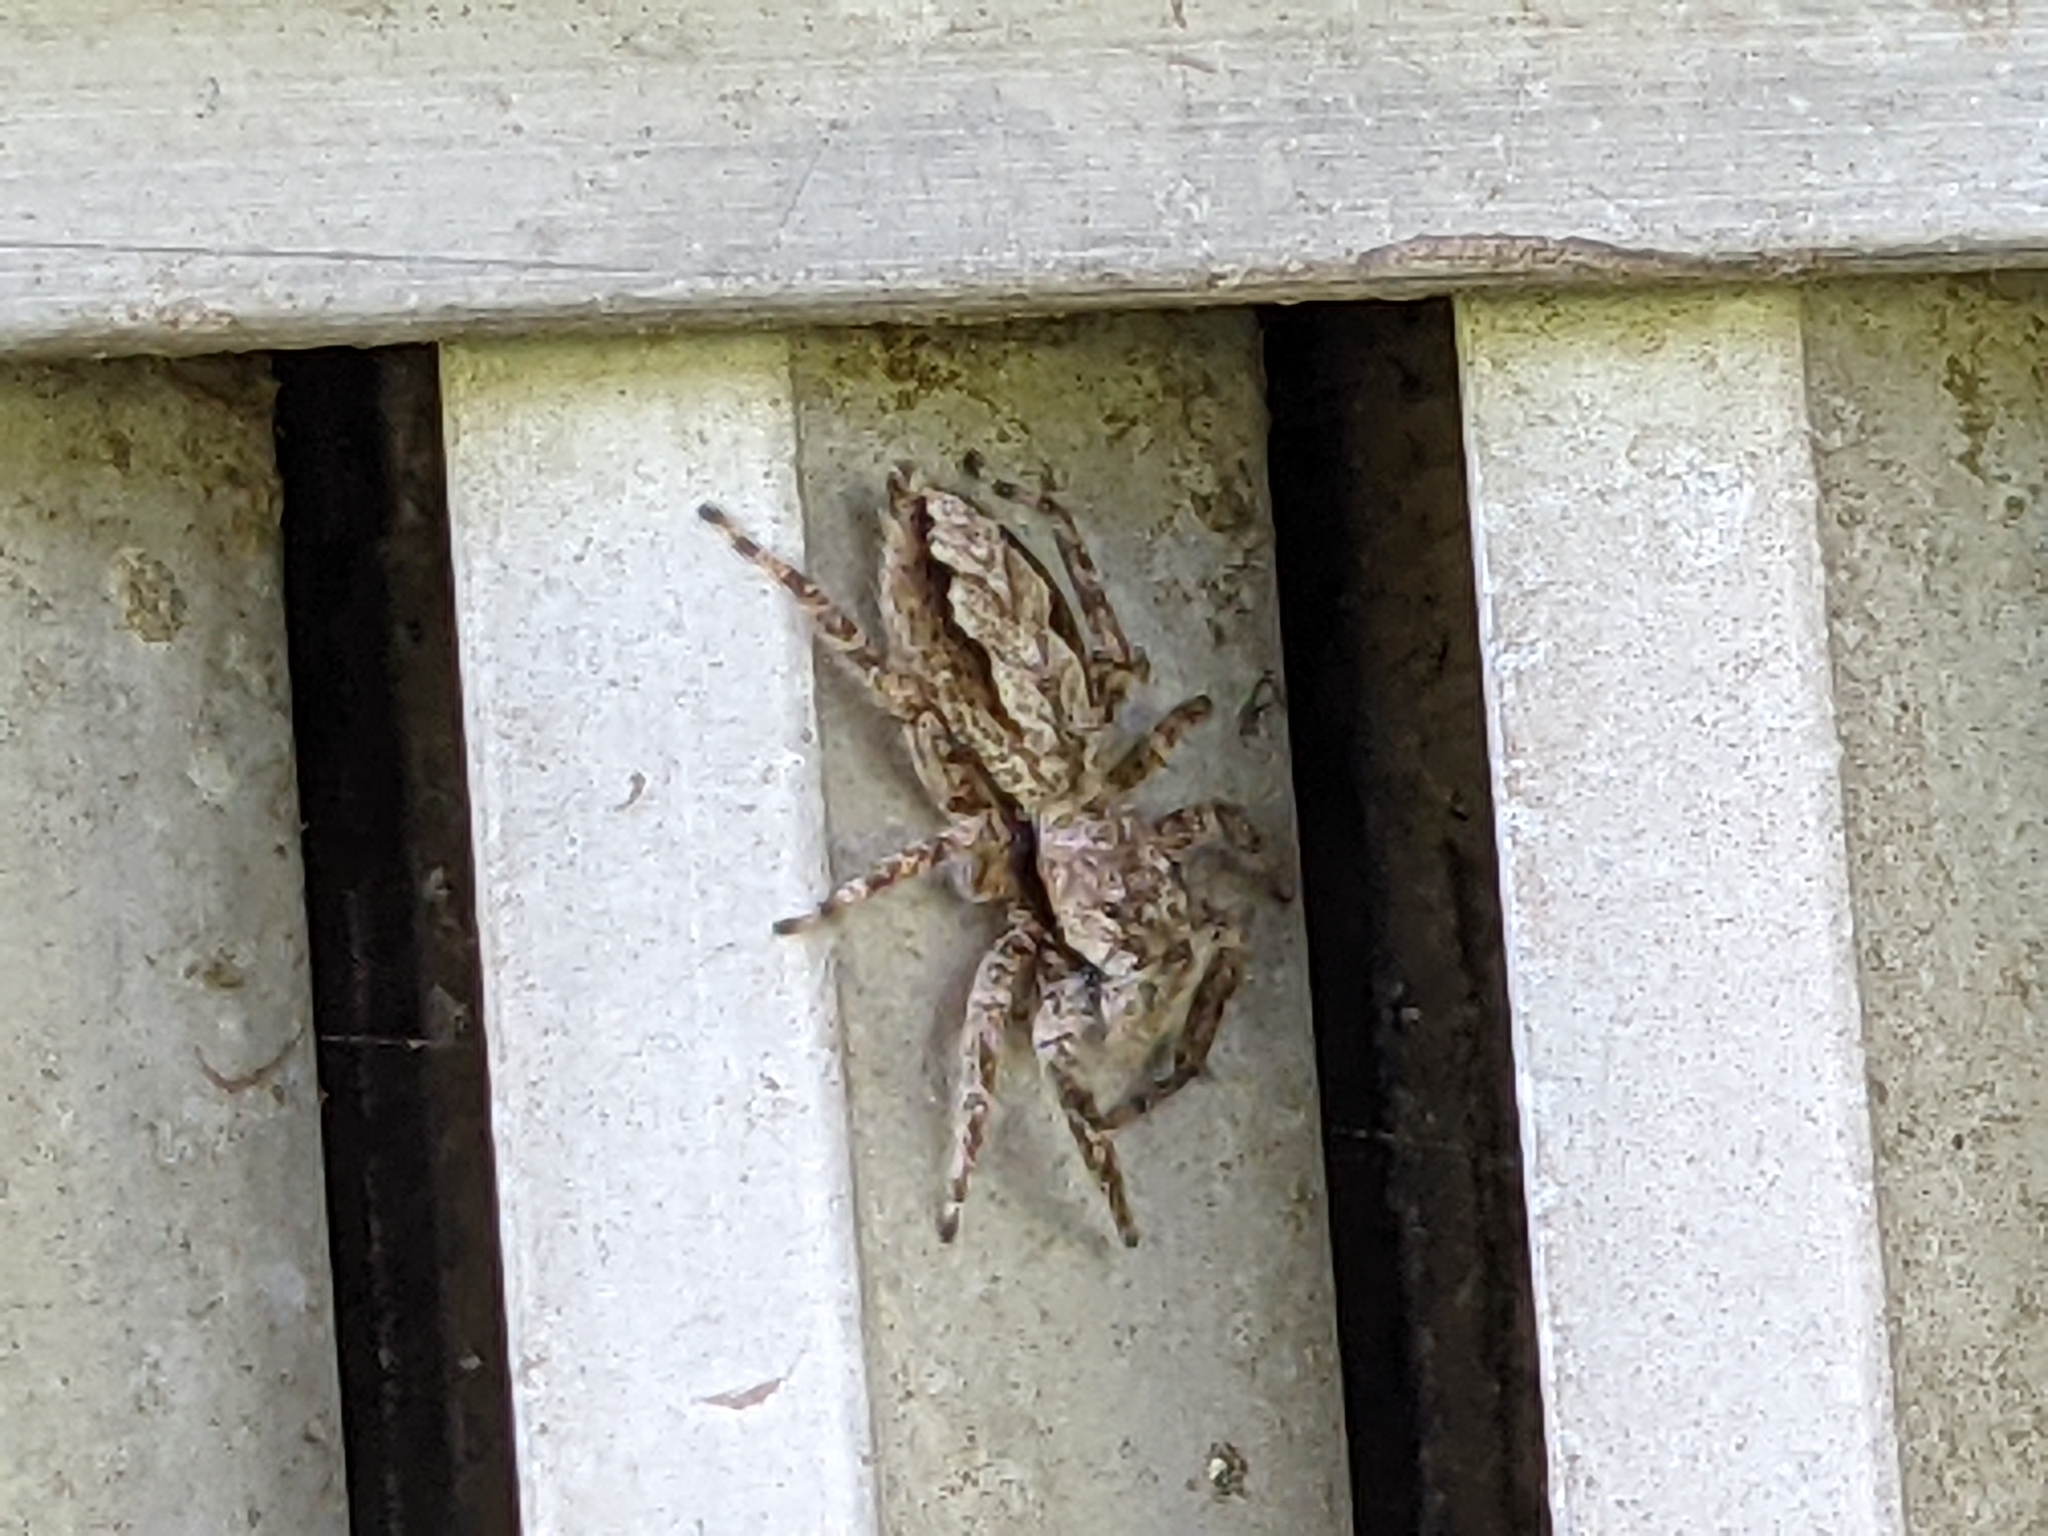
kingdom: Animalia
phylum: Arthropoda
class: Arachnida
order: Araneae
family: Salticidae
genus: Platycryptus
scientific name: Platycryptus undatus
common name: Tan jumping spider
